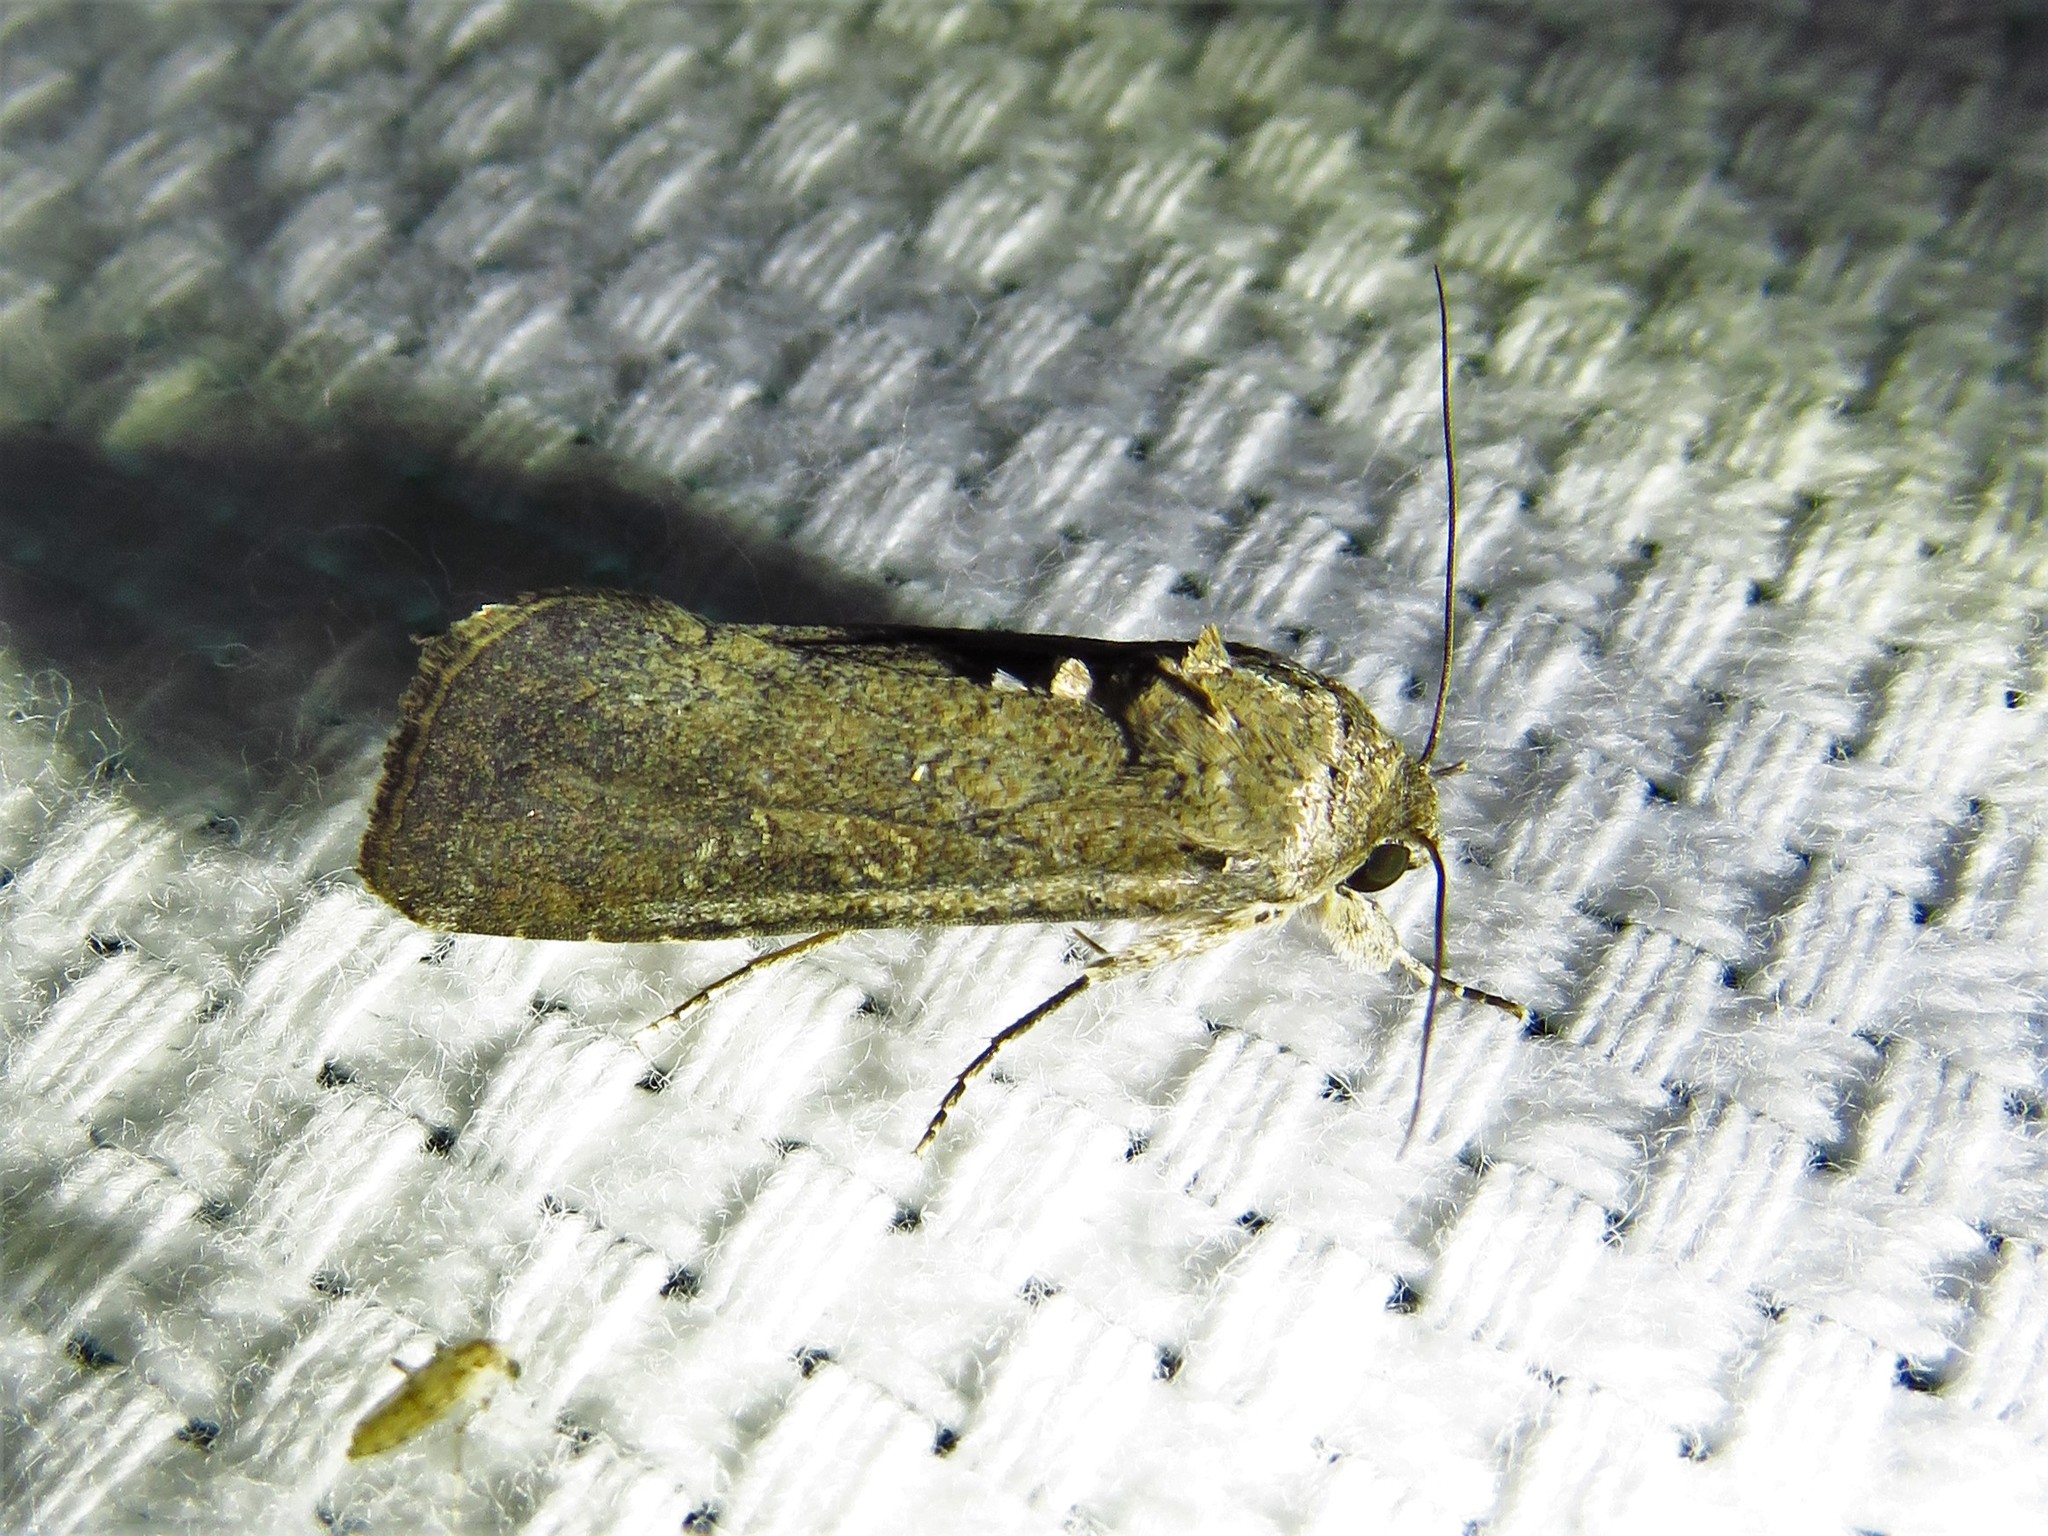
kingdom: Animalia
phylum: Arthropoda
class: Insecta
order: Lepidoptera
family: Noctuidae
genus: Spodoptera
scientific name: Spodoptera frugiperda
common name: Fall armyworm
